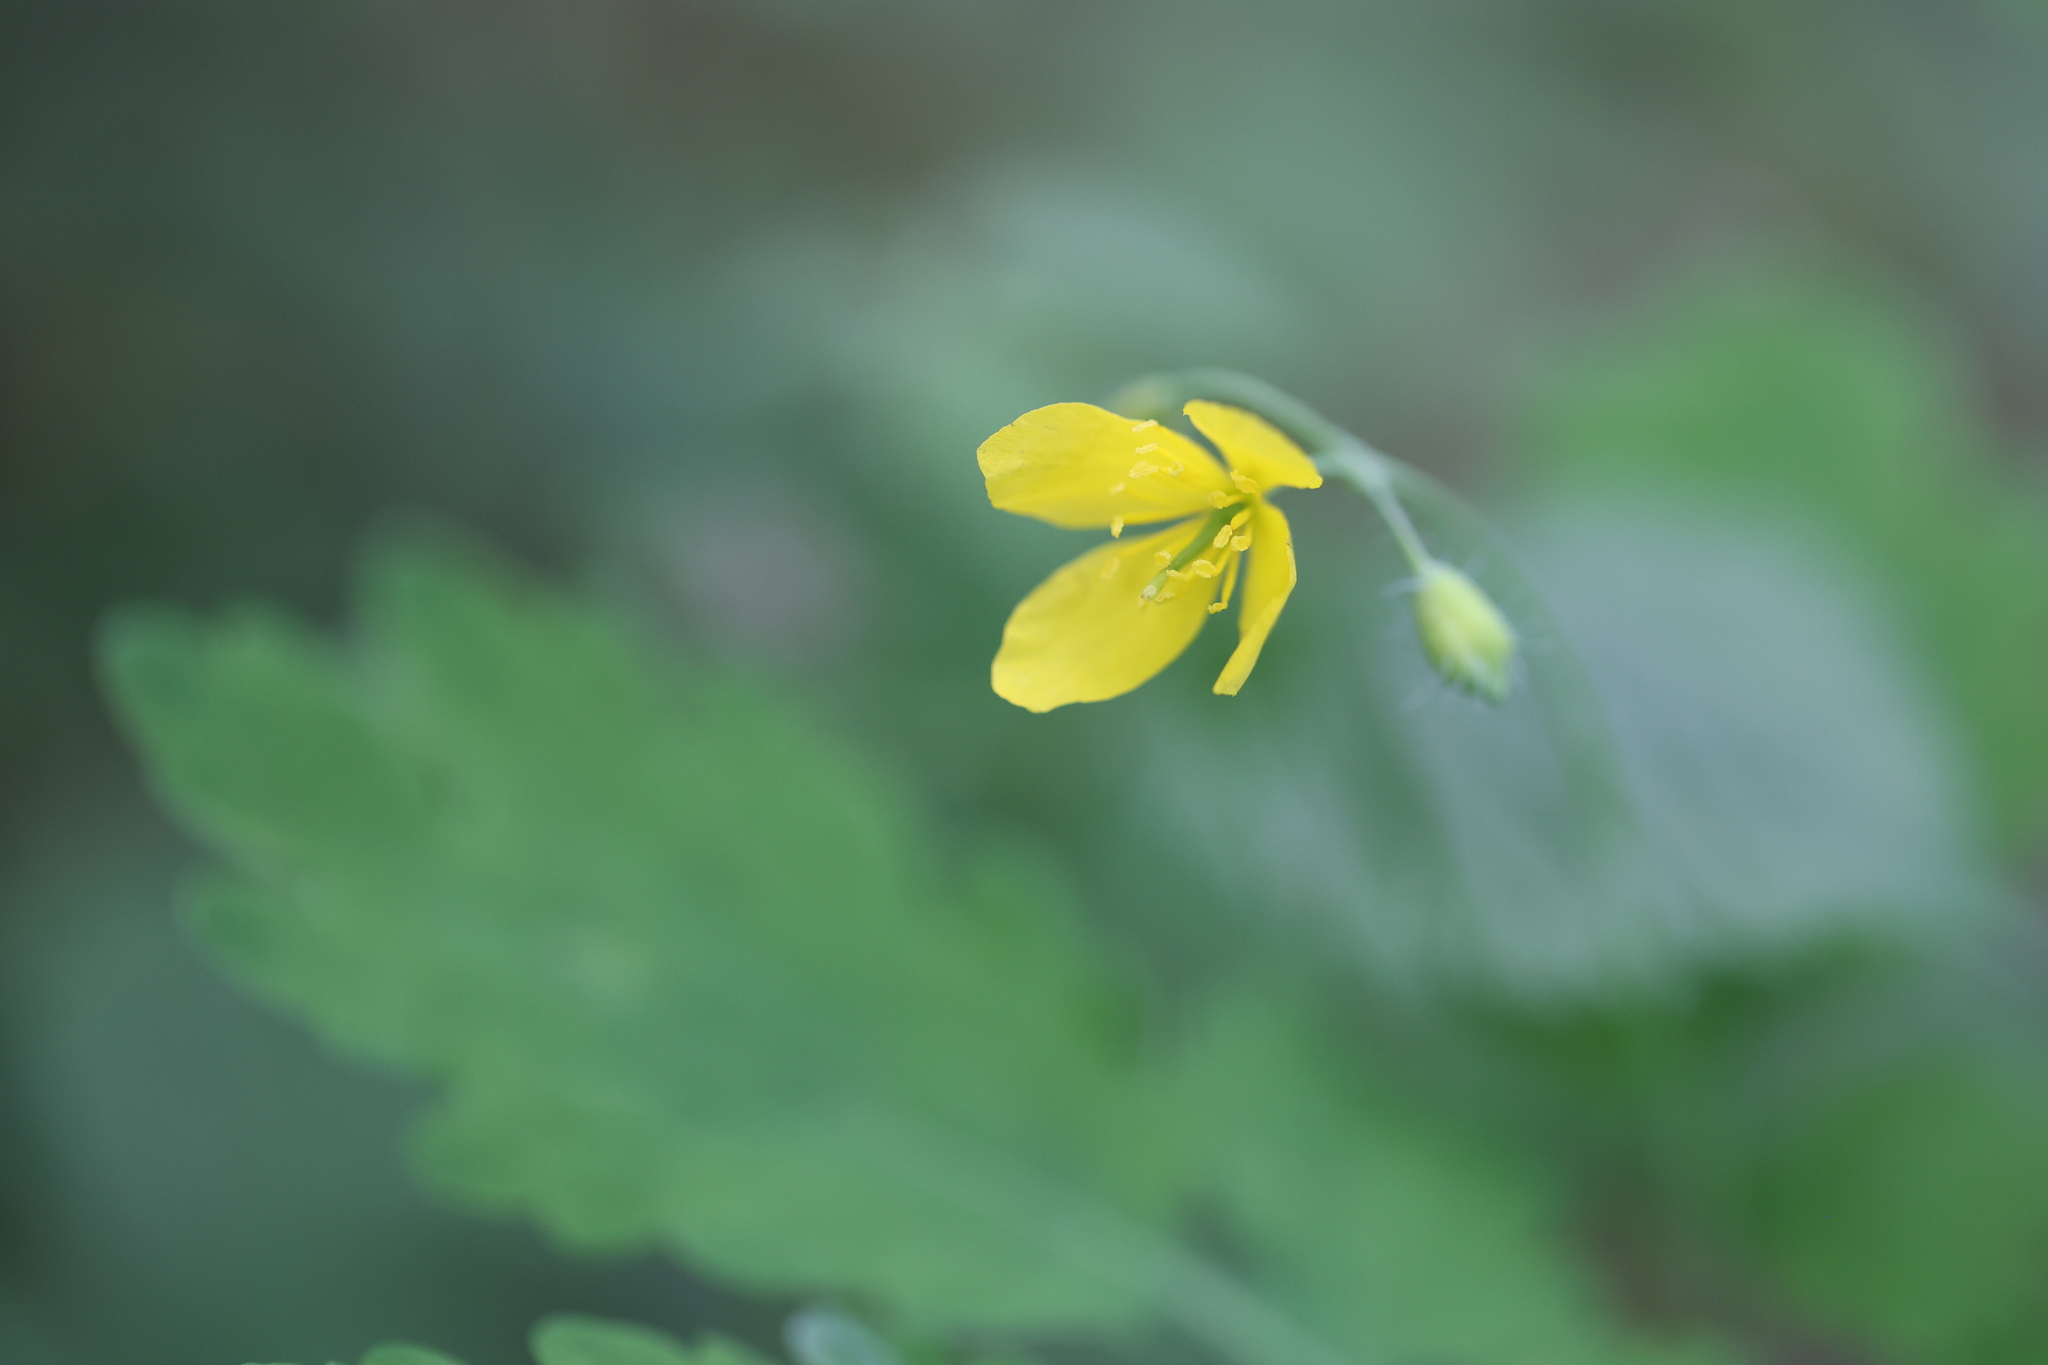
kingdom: Plantae
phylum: Tracheophyta
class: Magnoliopsida
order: Ranunculales
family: Papaveraceae
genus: Chelidonium
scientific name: Chelidonium majus
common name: Greater celandine
